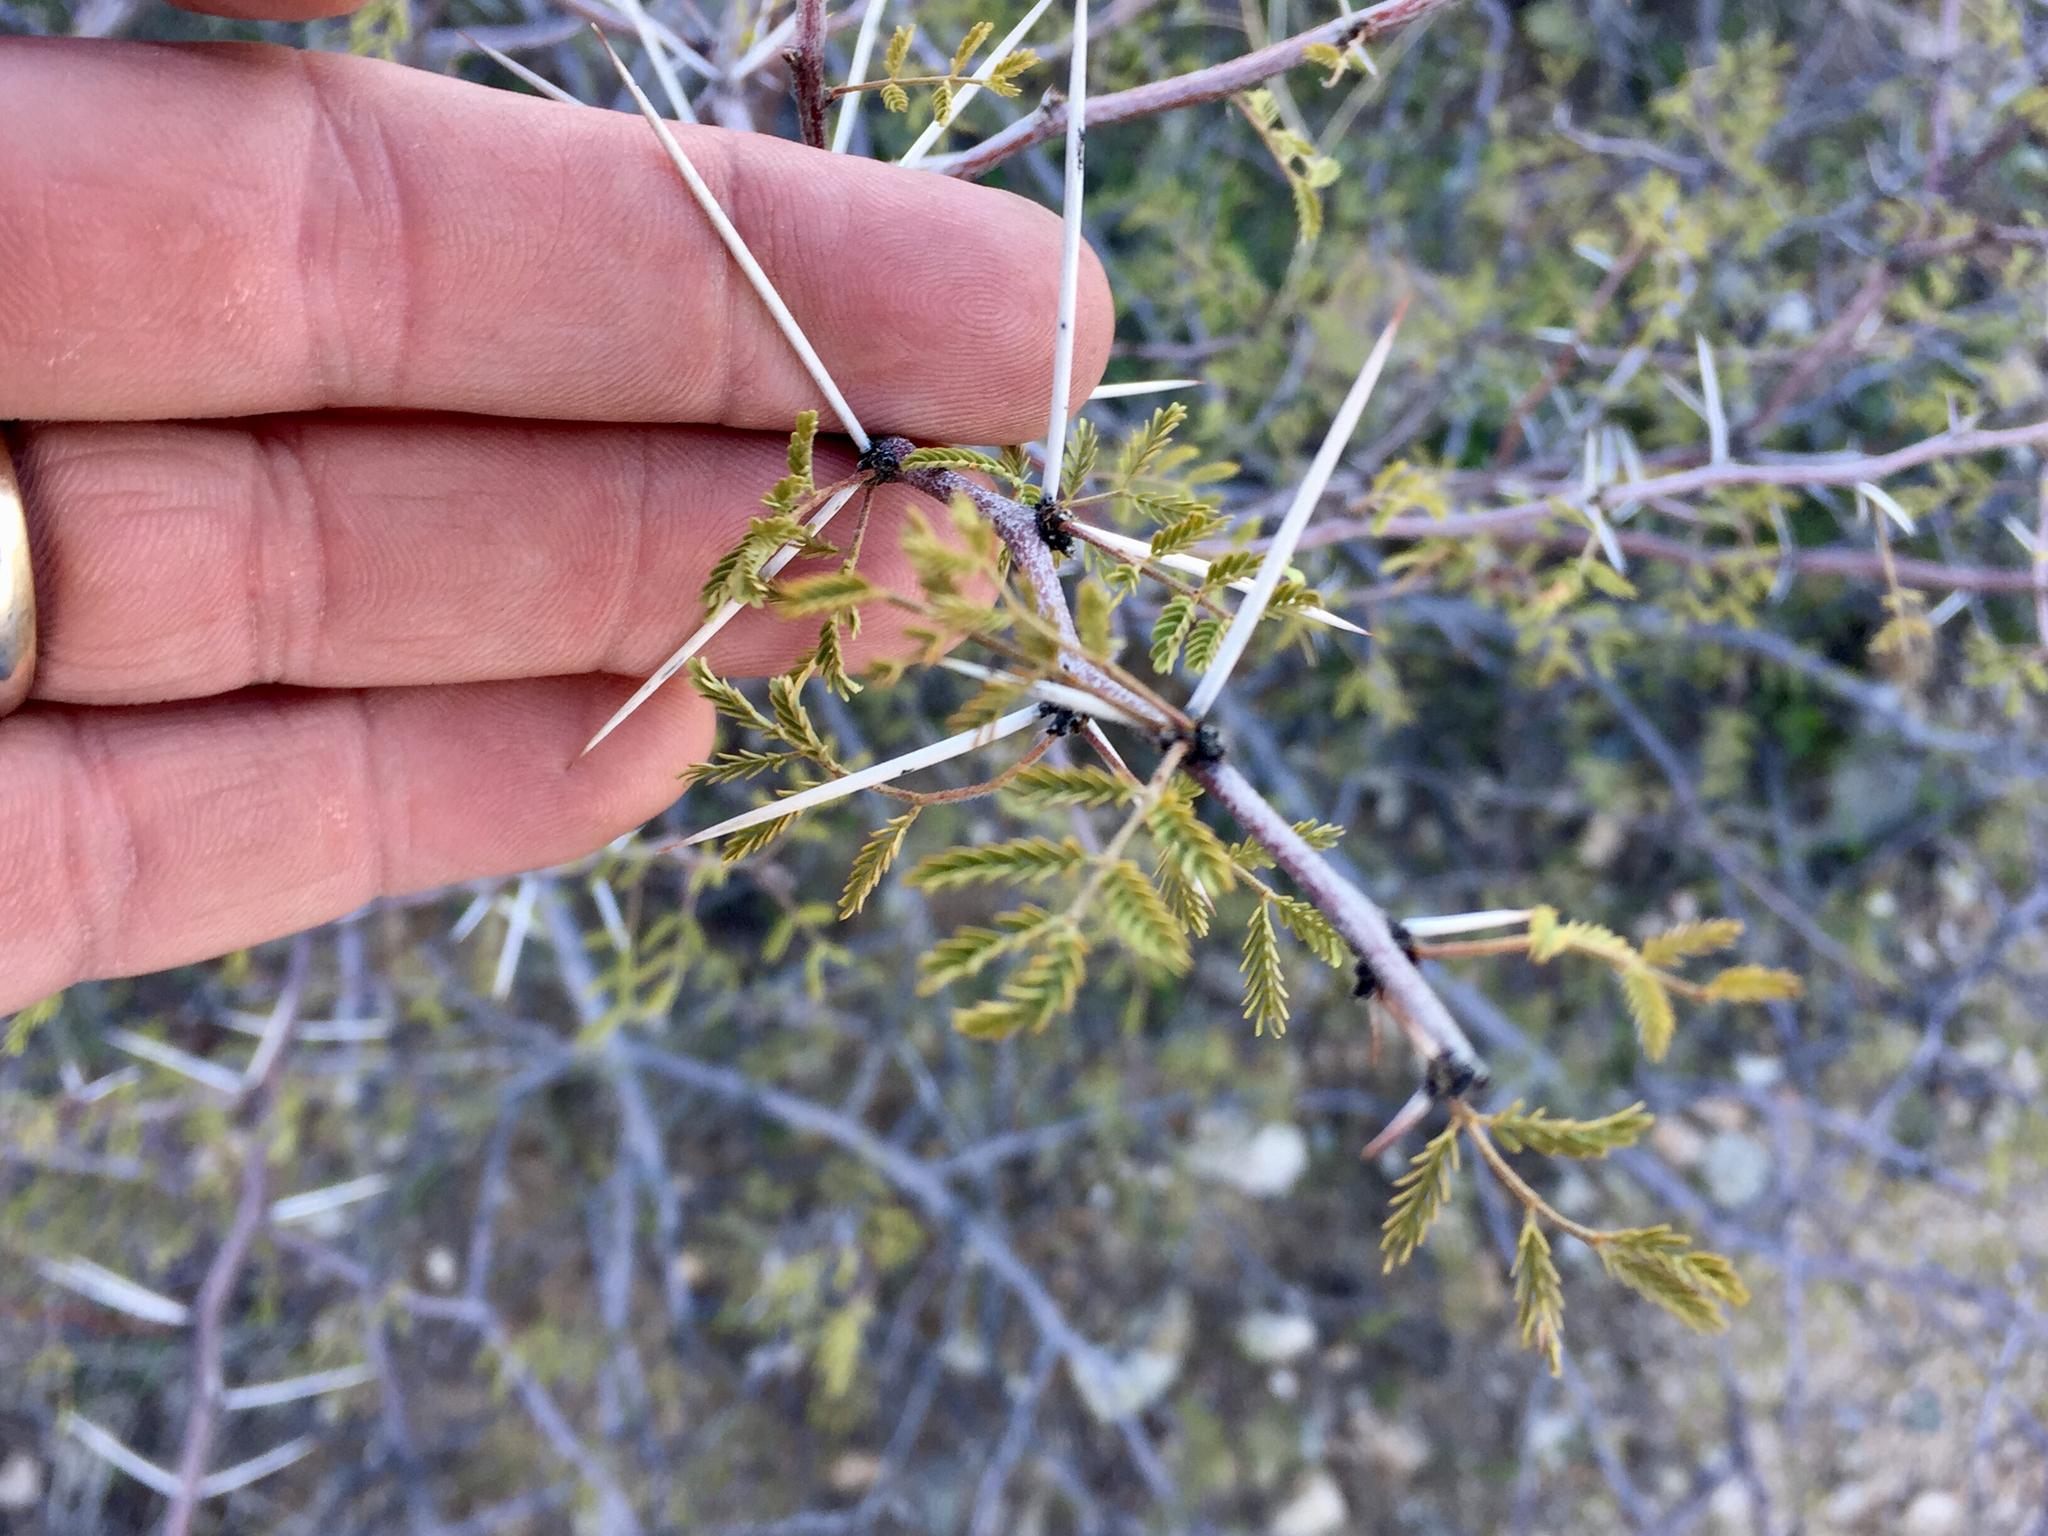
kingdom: Plantae
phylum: Tracheophyta
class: Magnoliopsida
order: Fabales
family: Fabaceae
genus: Vachellia
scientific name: Vachellia constricta
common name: Mescat acacia
